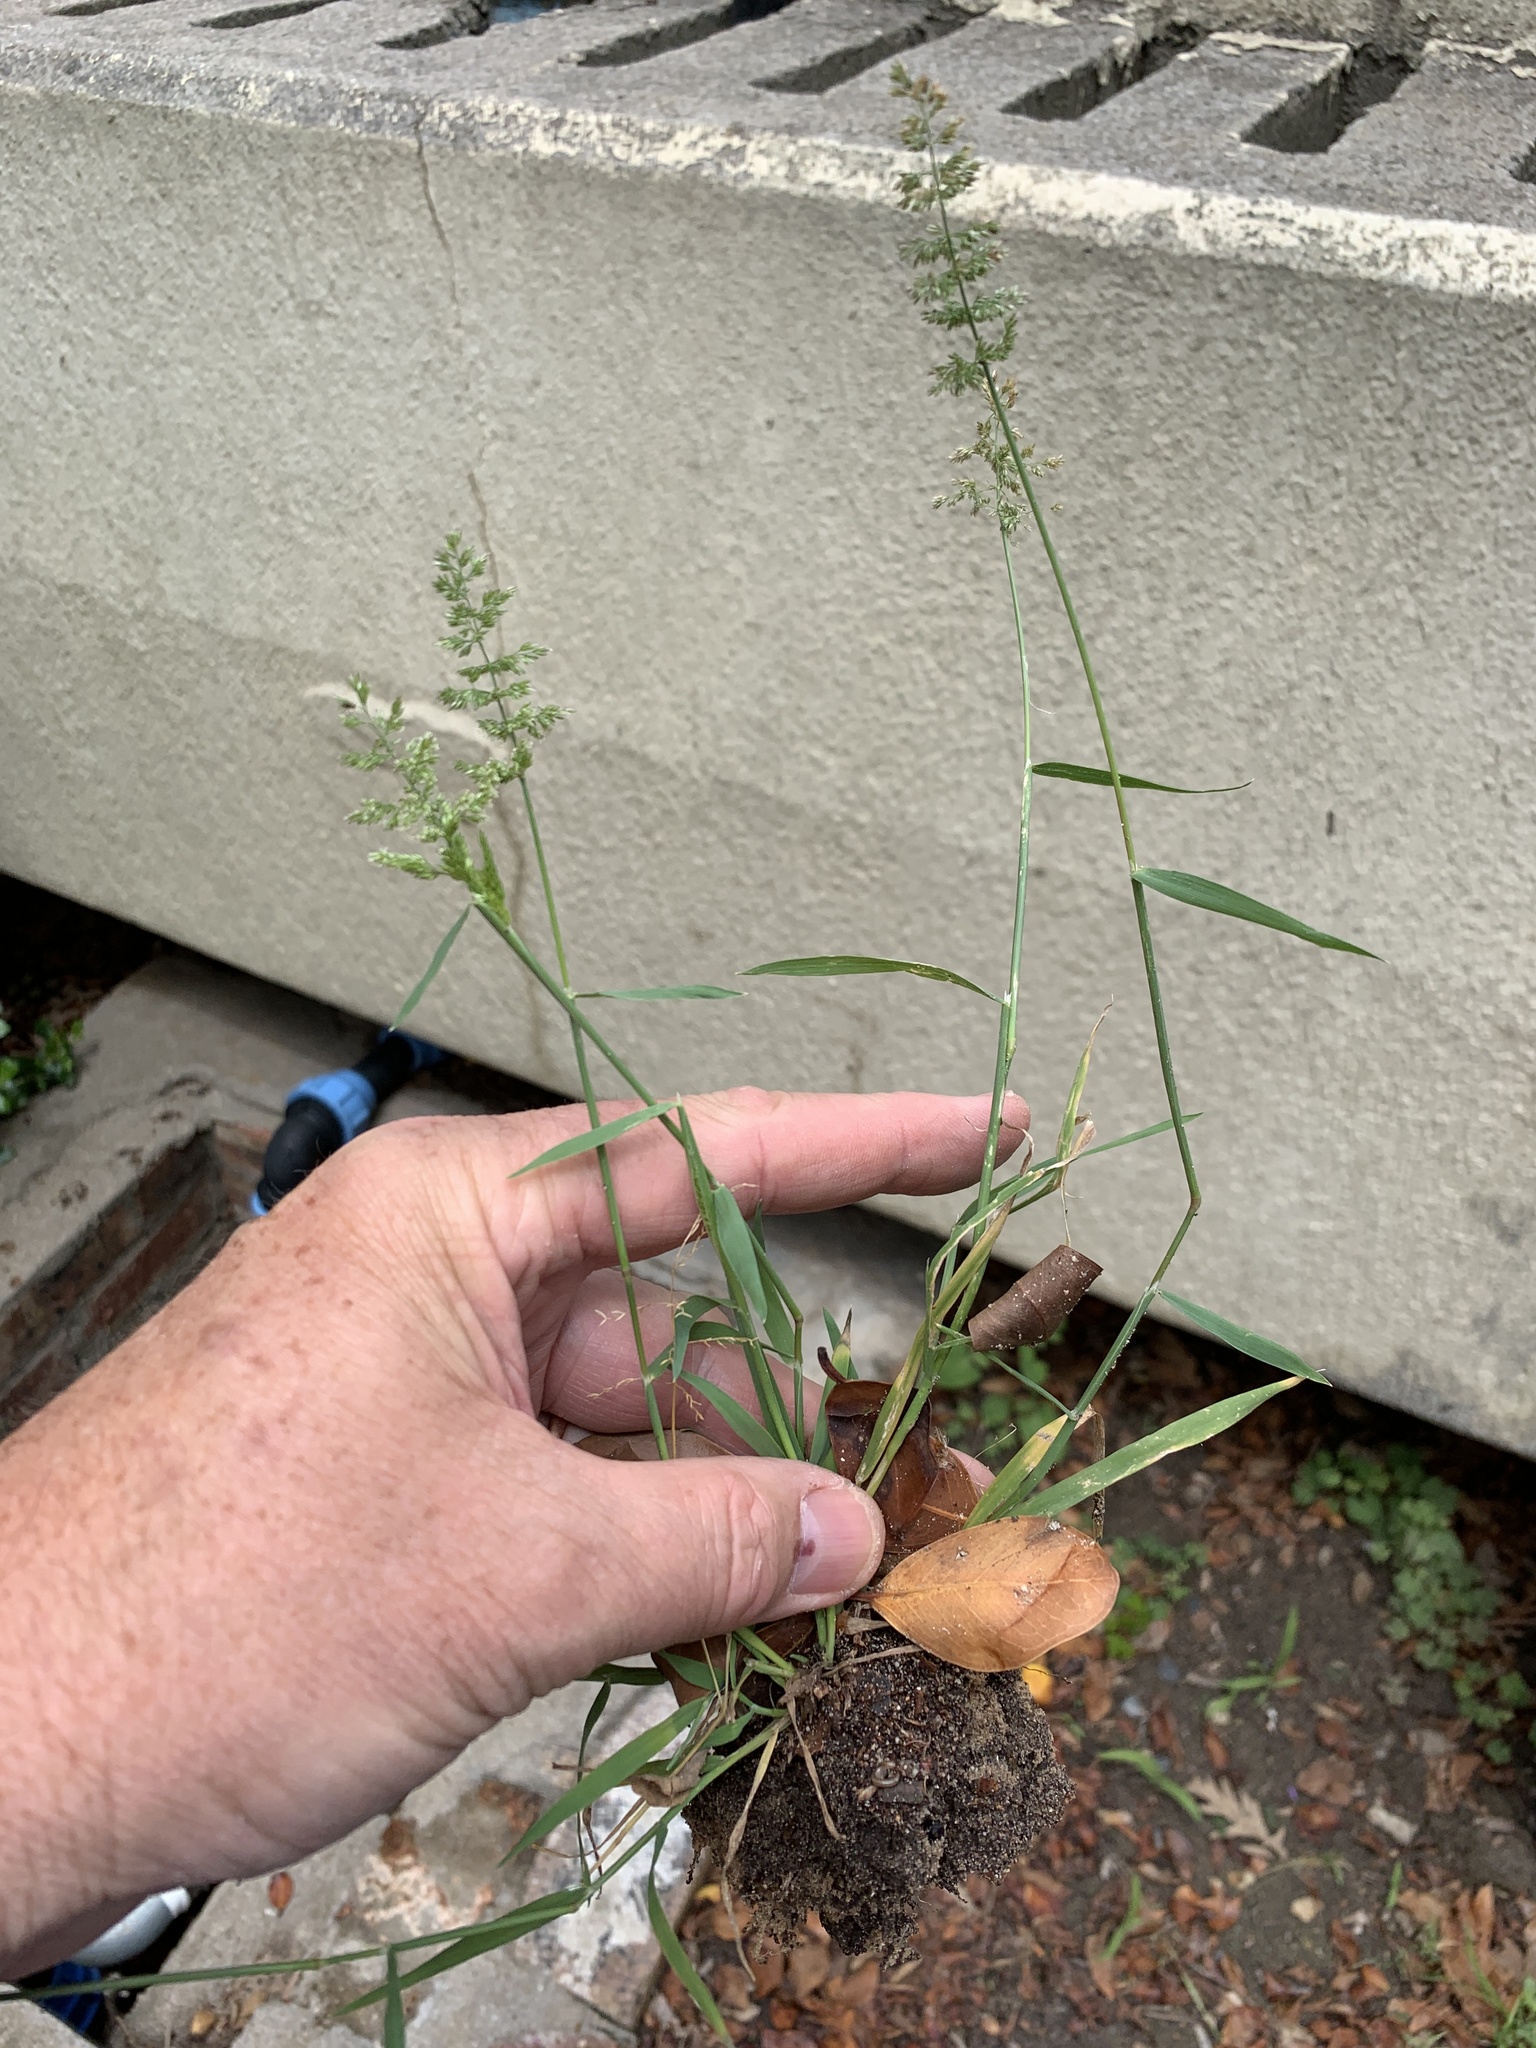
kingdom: Plantae
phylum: Tracheophyta
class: Liliopsida
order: Poales
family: Poaceae
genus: Polypogon
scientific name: Polypogon viridis
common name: Water bent
